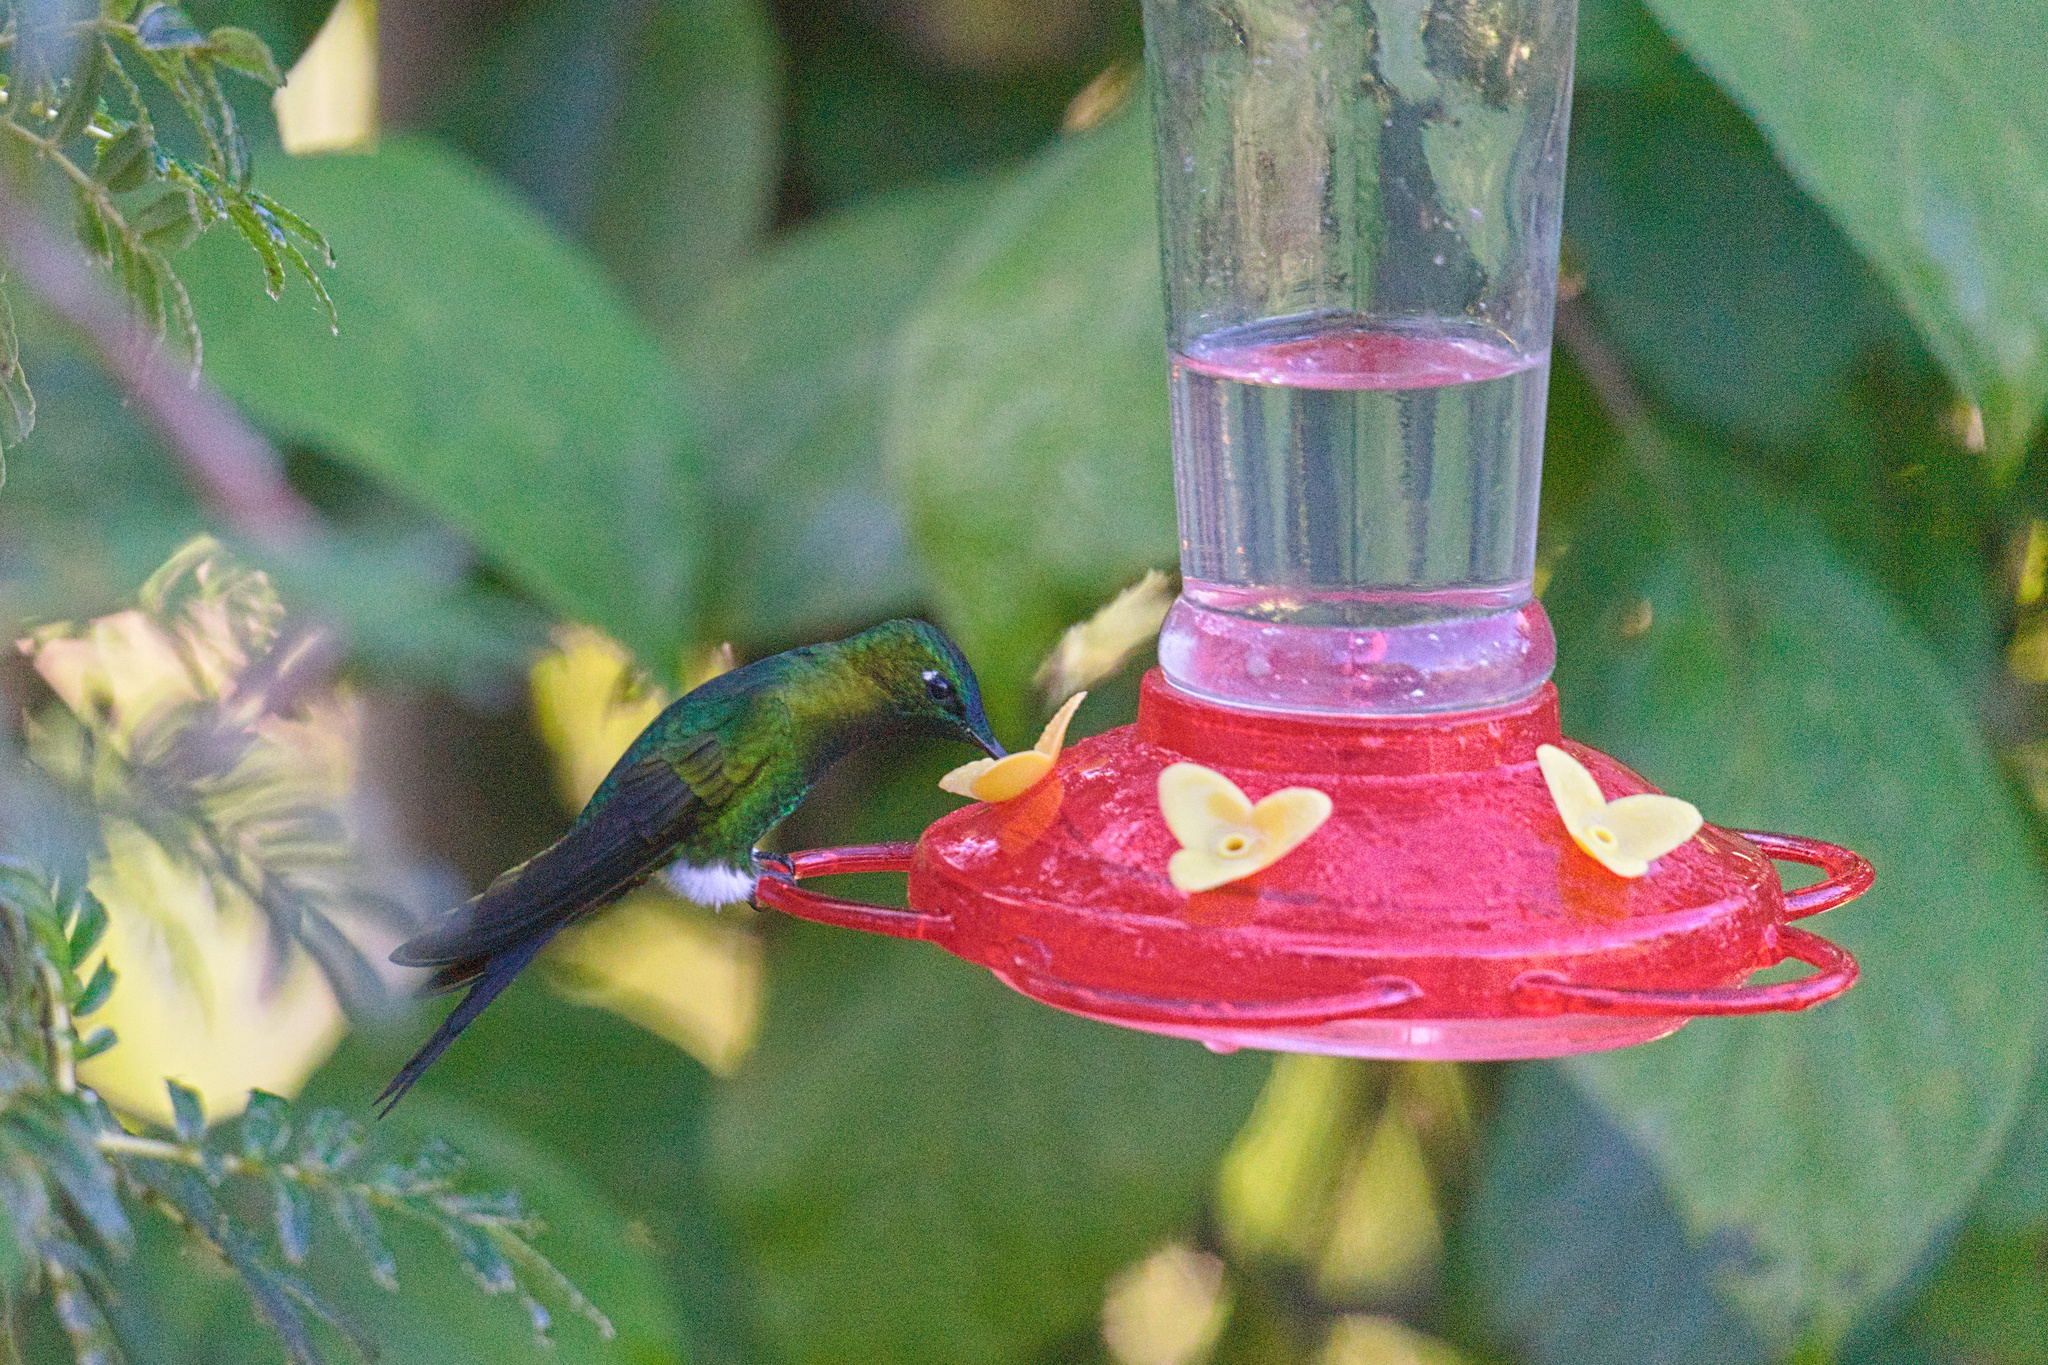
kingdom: Animalia
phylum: Chordata
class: Aves
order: Apodiformes
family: Trochilidae
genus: Eriocnemis
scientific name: Eriocnemis luciani
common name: Sapphire-vented puffleg
